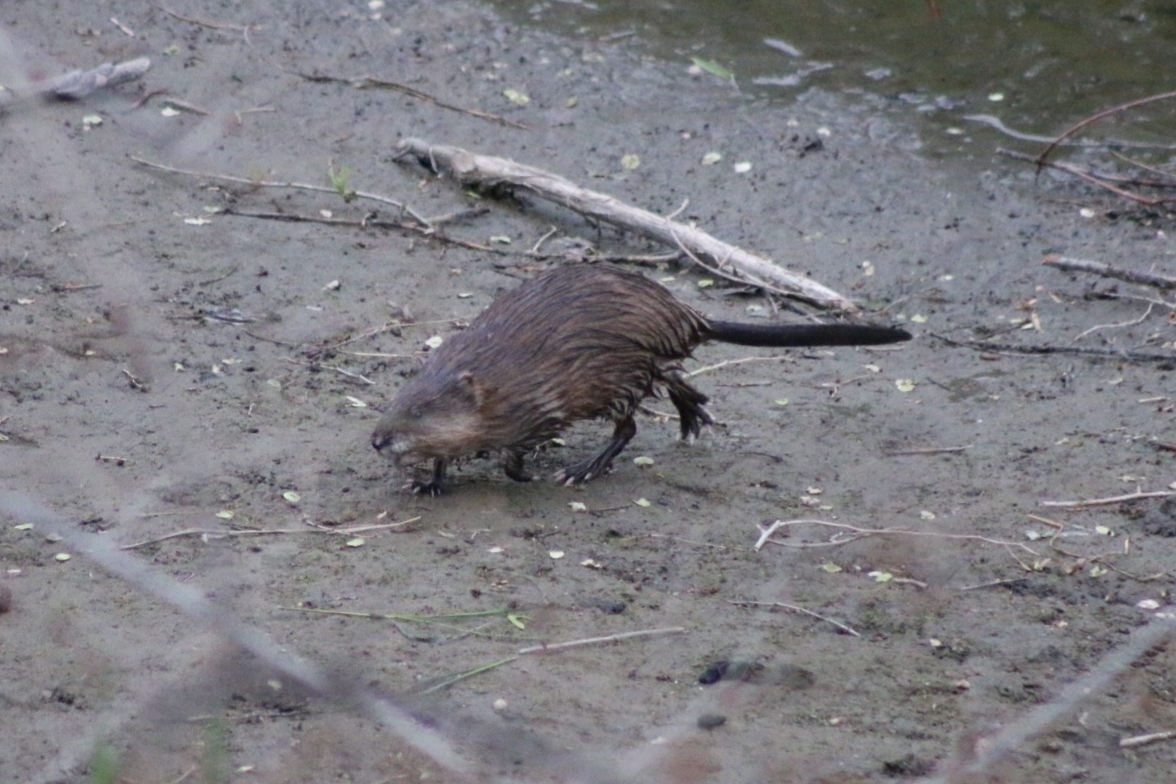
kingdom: Animalia
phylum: Chordata
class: Mammalia
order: Rodentia
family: Cricetidae
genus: Ondatra
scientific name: Ondatra zibethicus
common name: Muskrat
